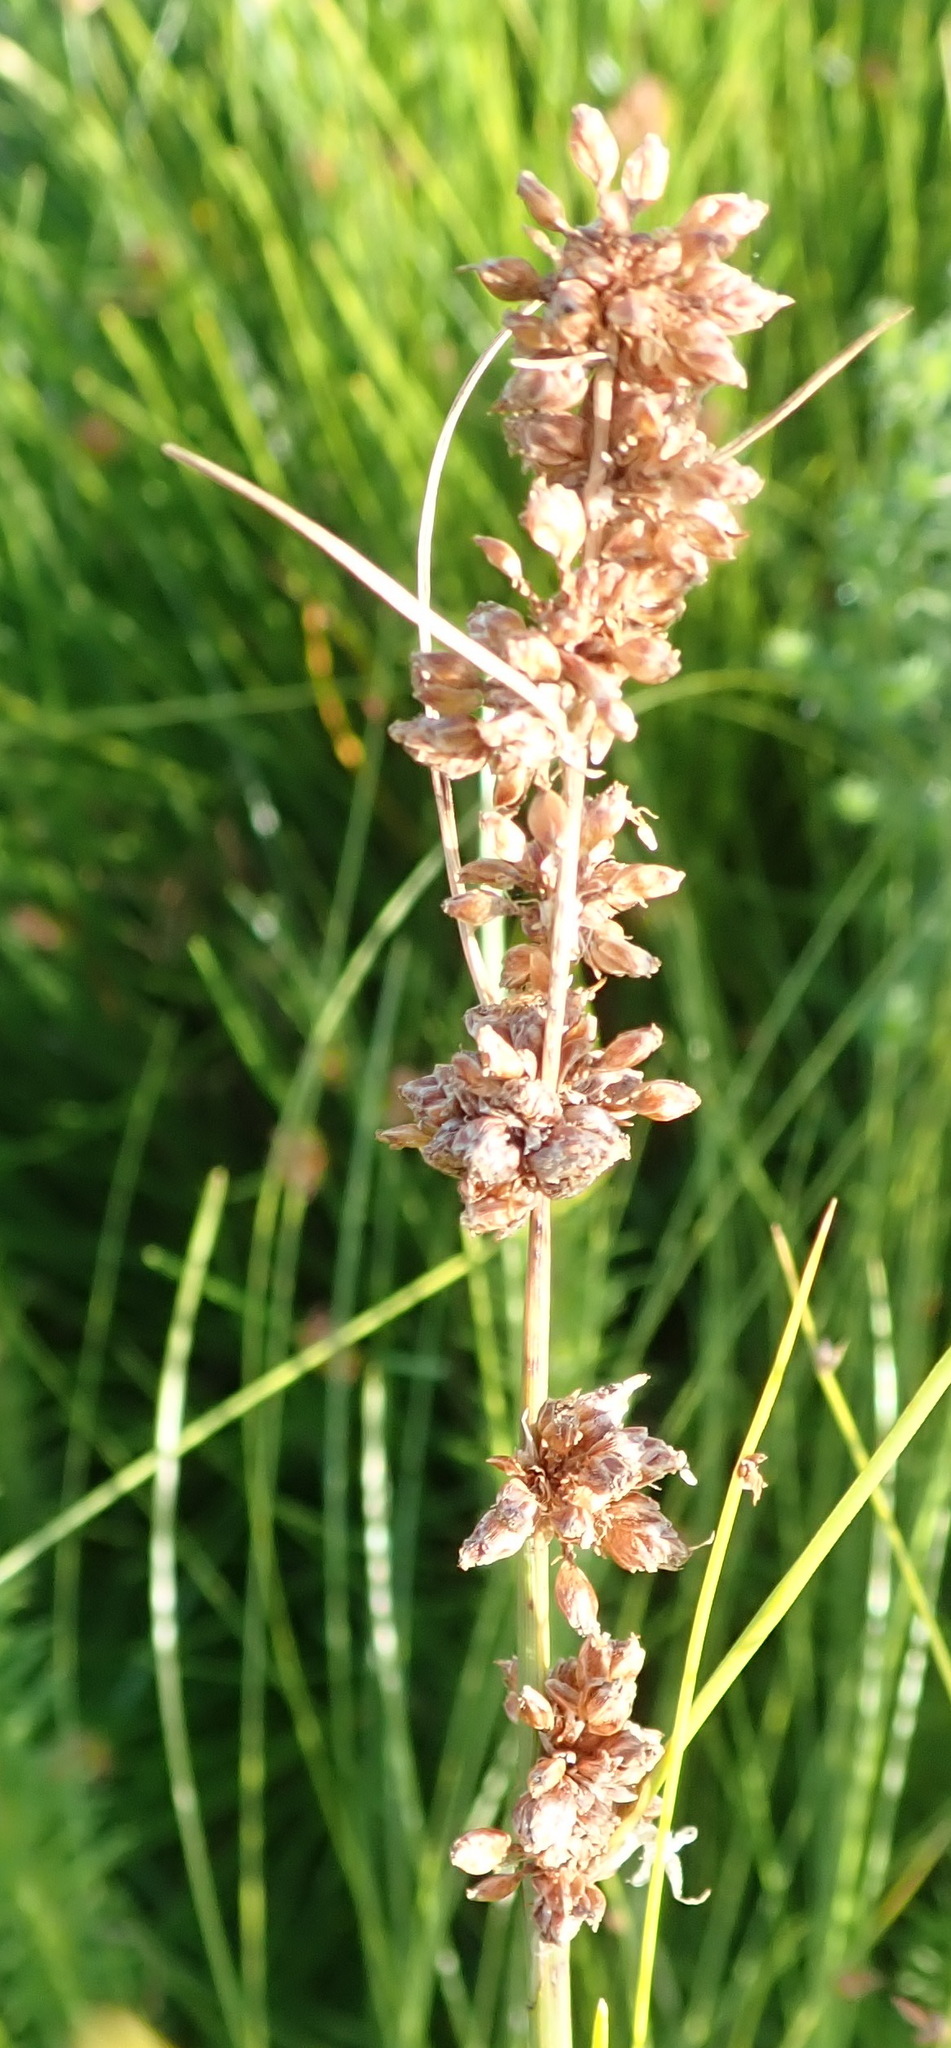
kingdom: Plantae
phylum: Tracheophyta
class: Liliopsida
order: Poales
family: Cyperaceae
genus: Ficinia
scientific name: Ficinia bulbosa
